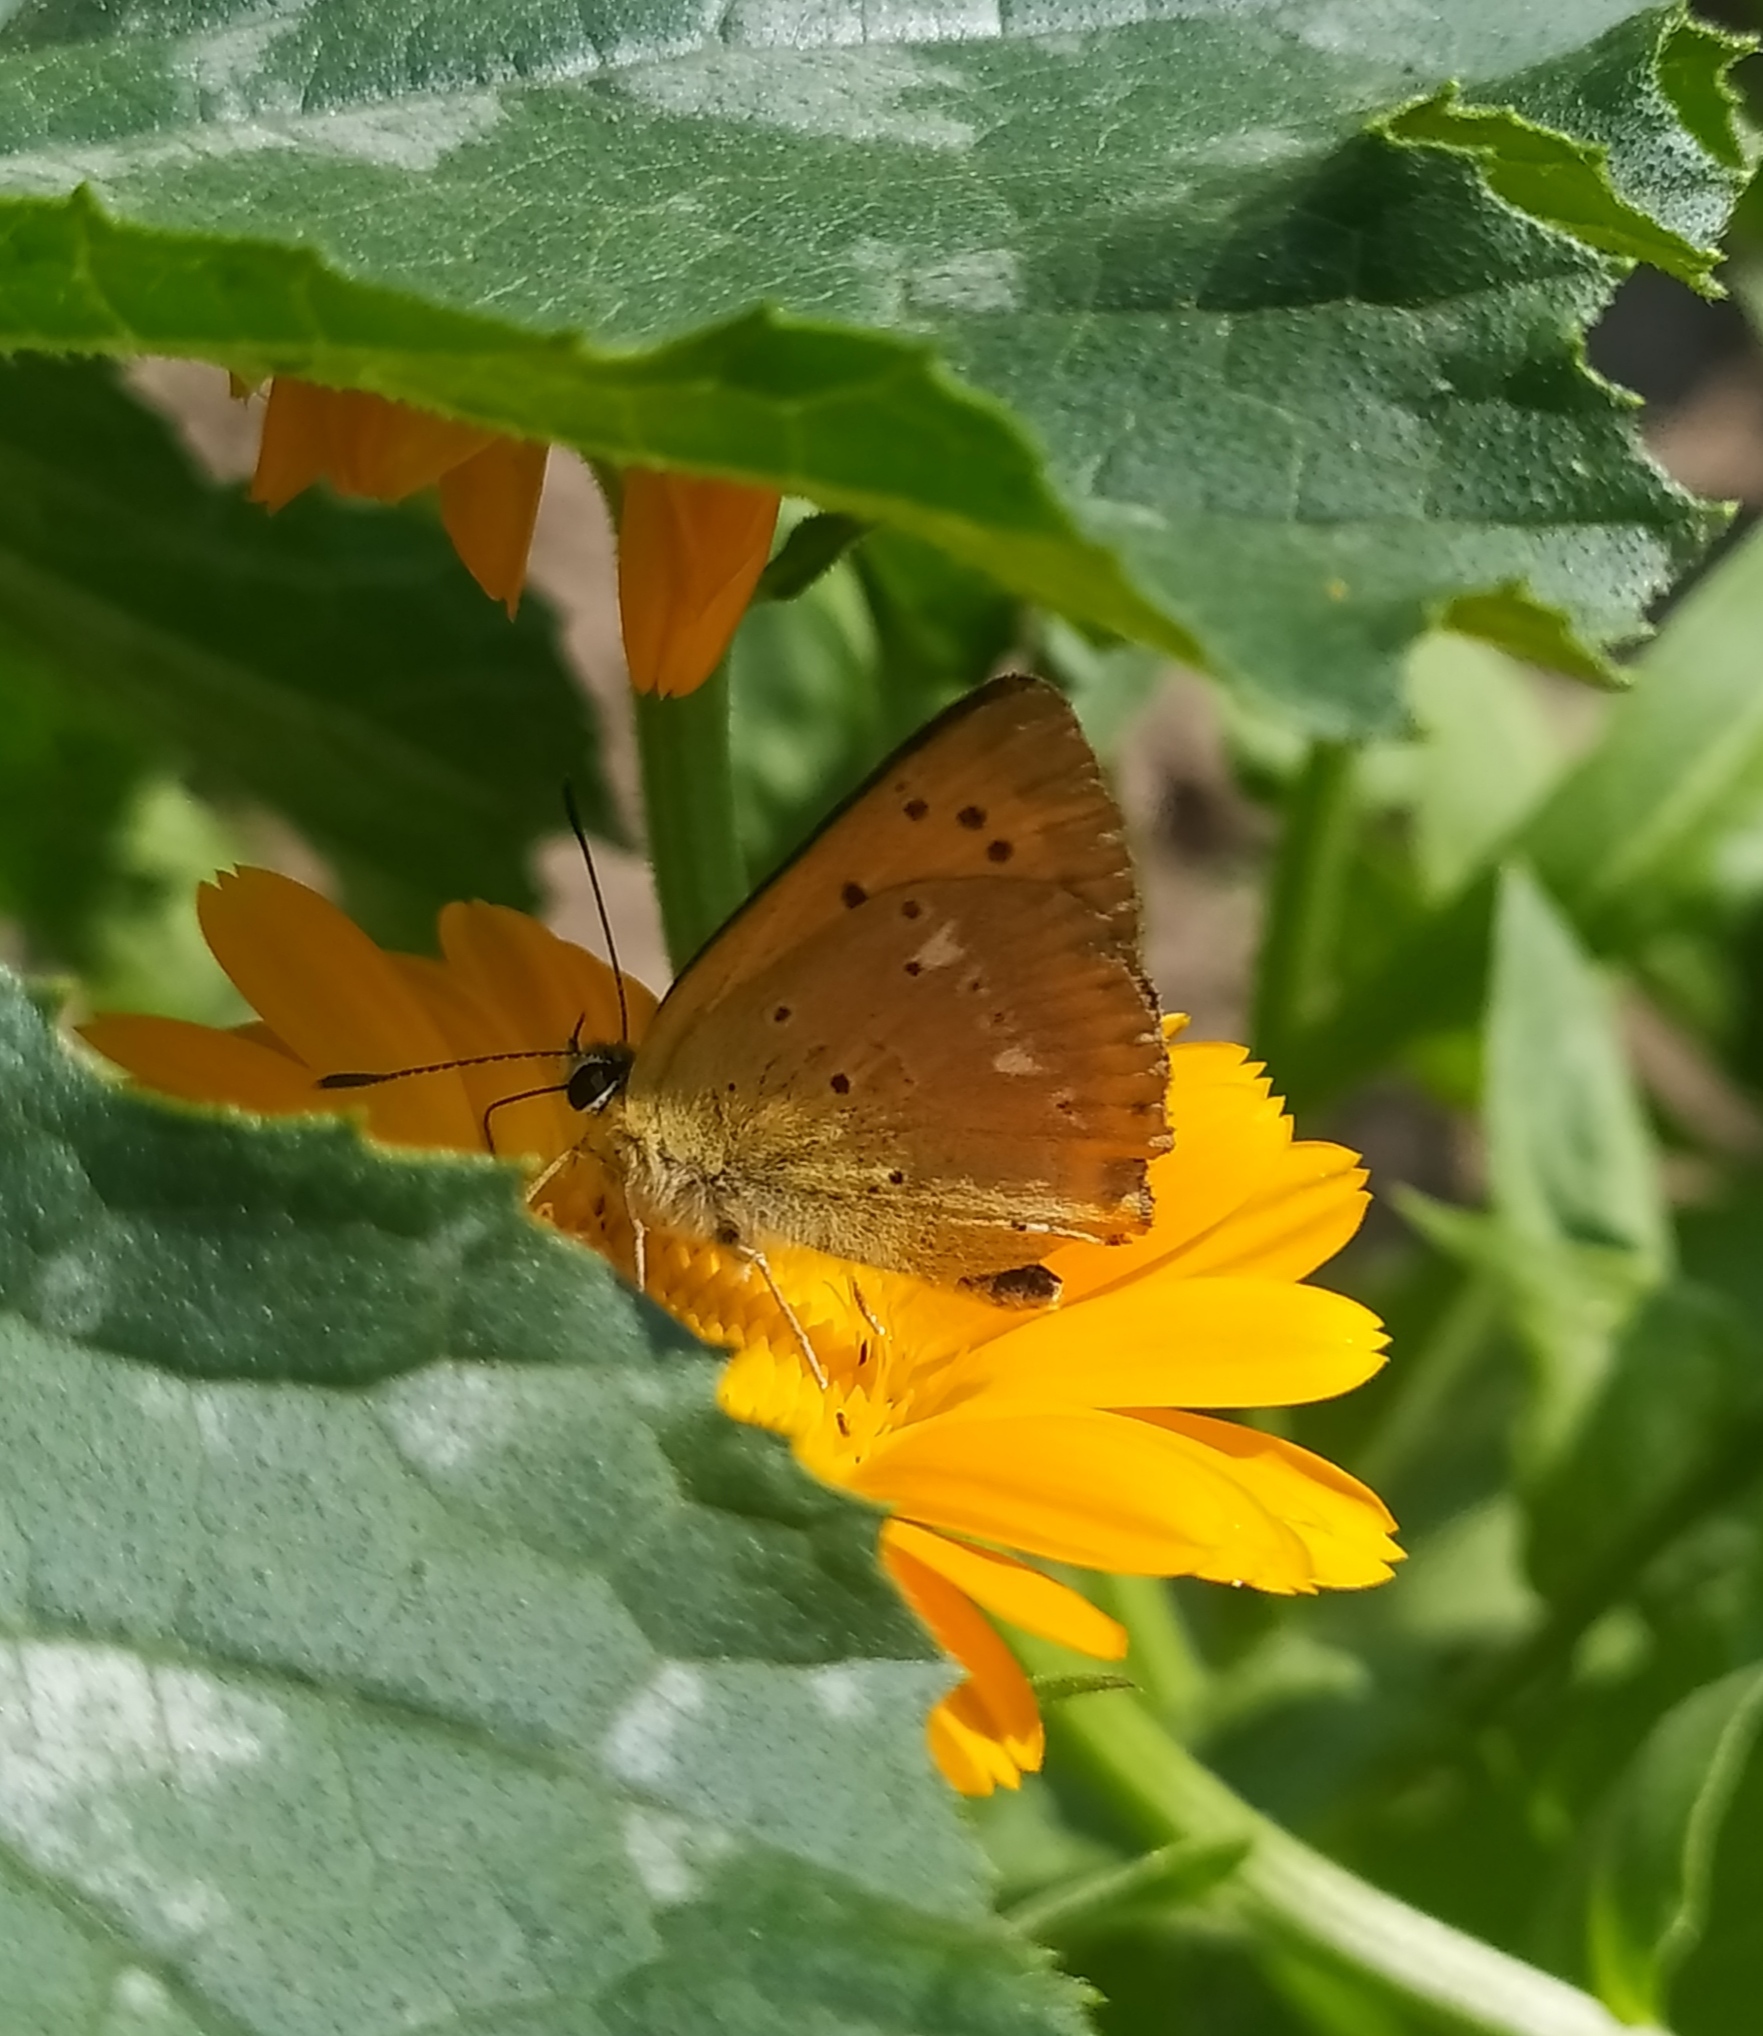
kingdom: Animalia
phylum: Arthropoda
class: Insecta
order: Lepidoptera
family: Lycaenidae
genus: Lycaena
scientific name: Lycaena virgaureae
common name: Scarce copper
